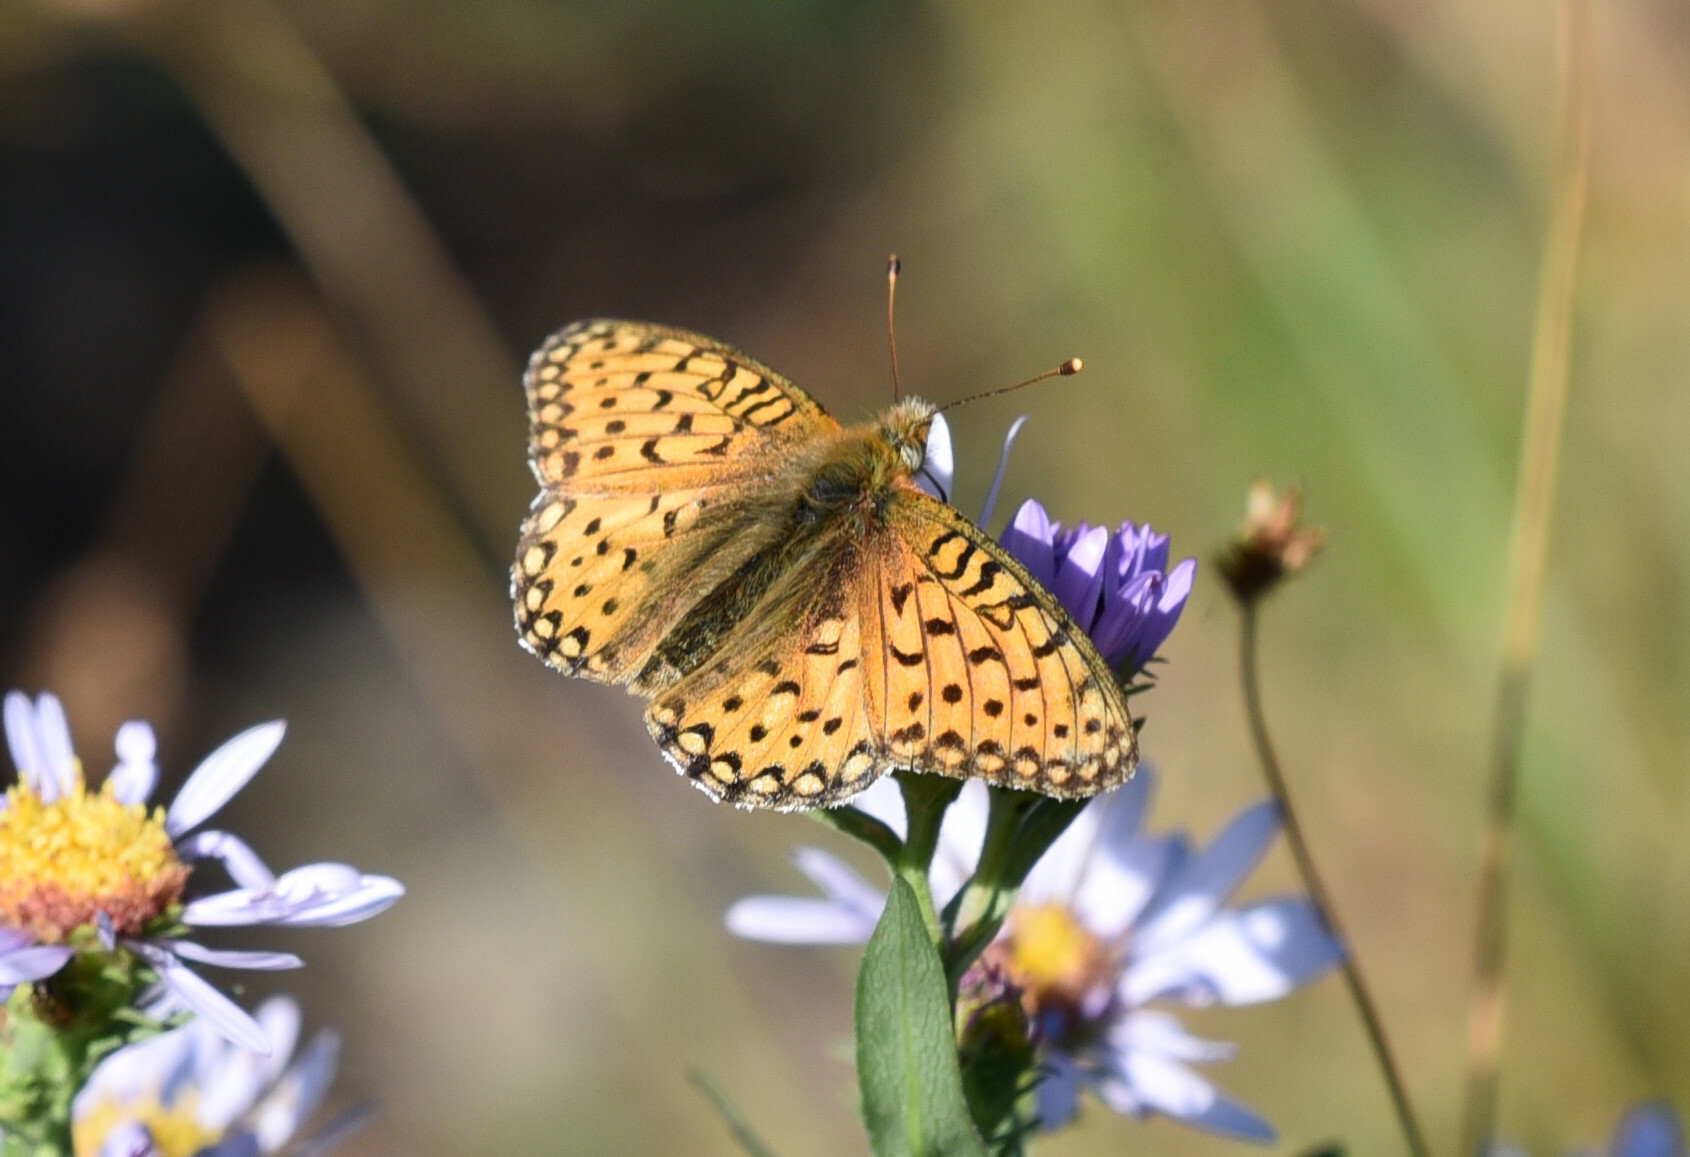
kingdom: Animalia
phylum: Arthropoda
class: Insecta
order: Lepidoptera
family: Nymphalidae
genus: Speyeria
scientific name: Speyeria mormonia
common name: Mormon fritillary
